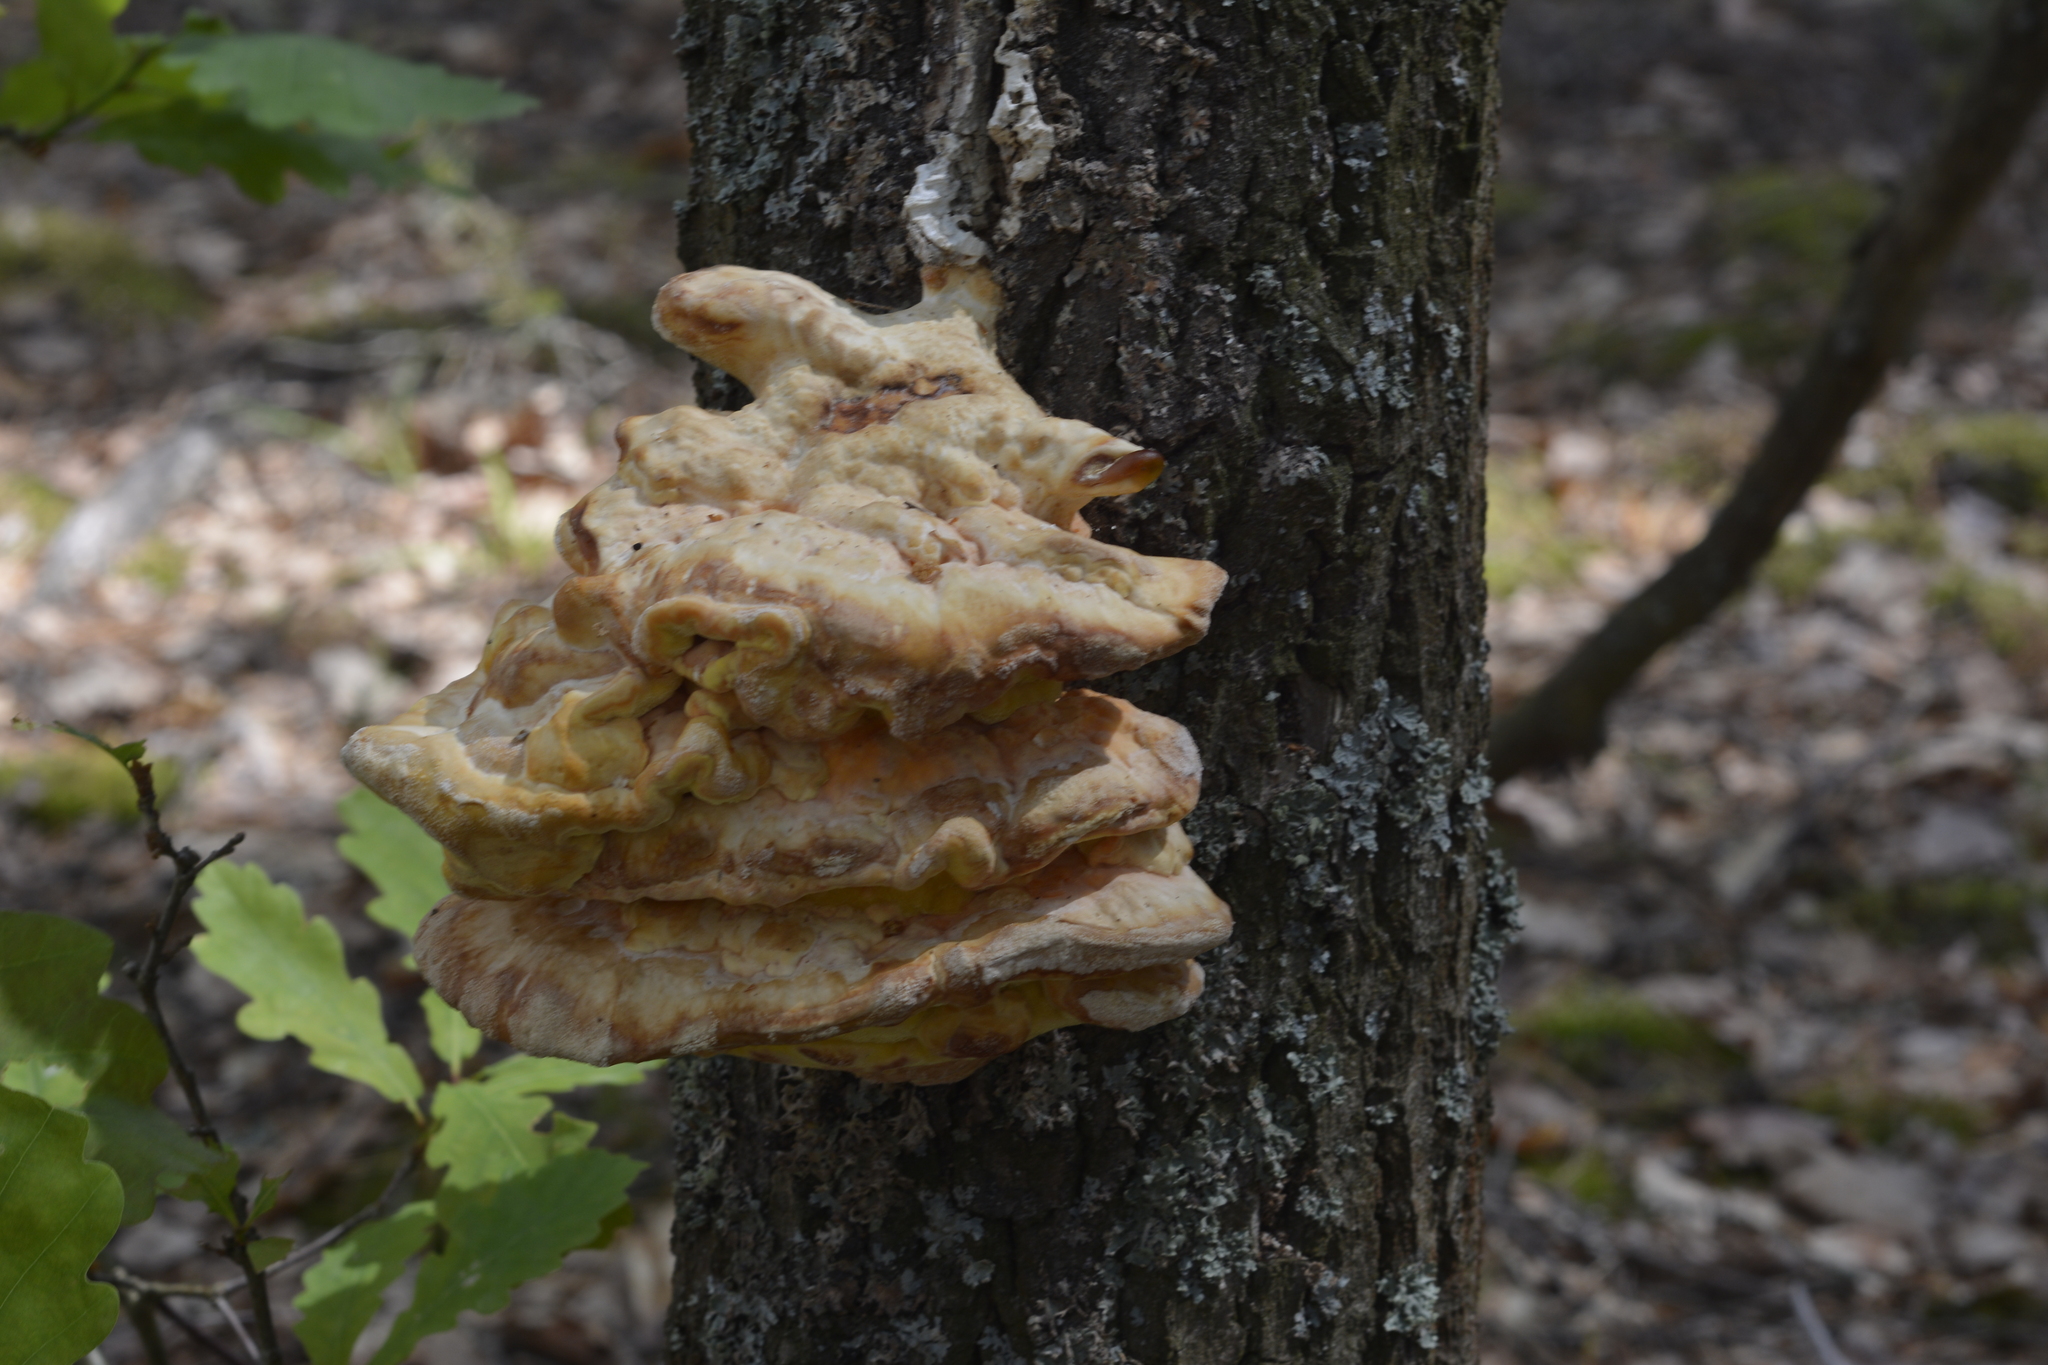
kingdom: Fungi
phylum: Basidiomycota
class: Agaricomycetes
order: Polyporales
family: Laetiporaceae
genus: Laetiporus
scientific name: Laetiporus sulphureus
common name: Chicken of the woods
